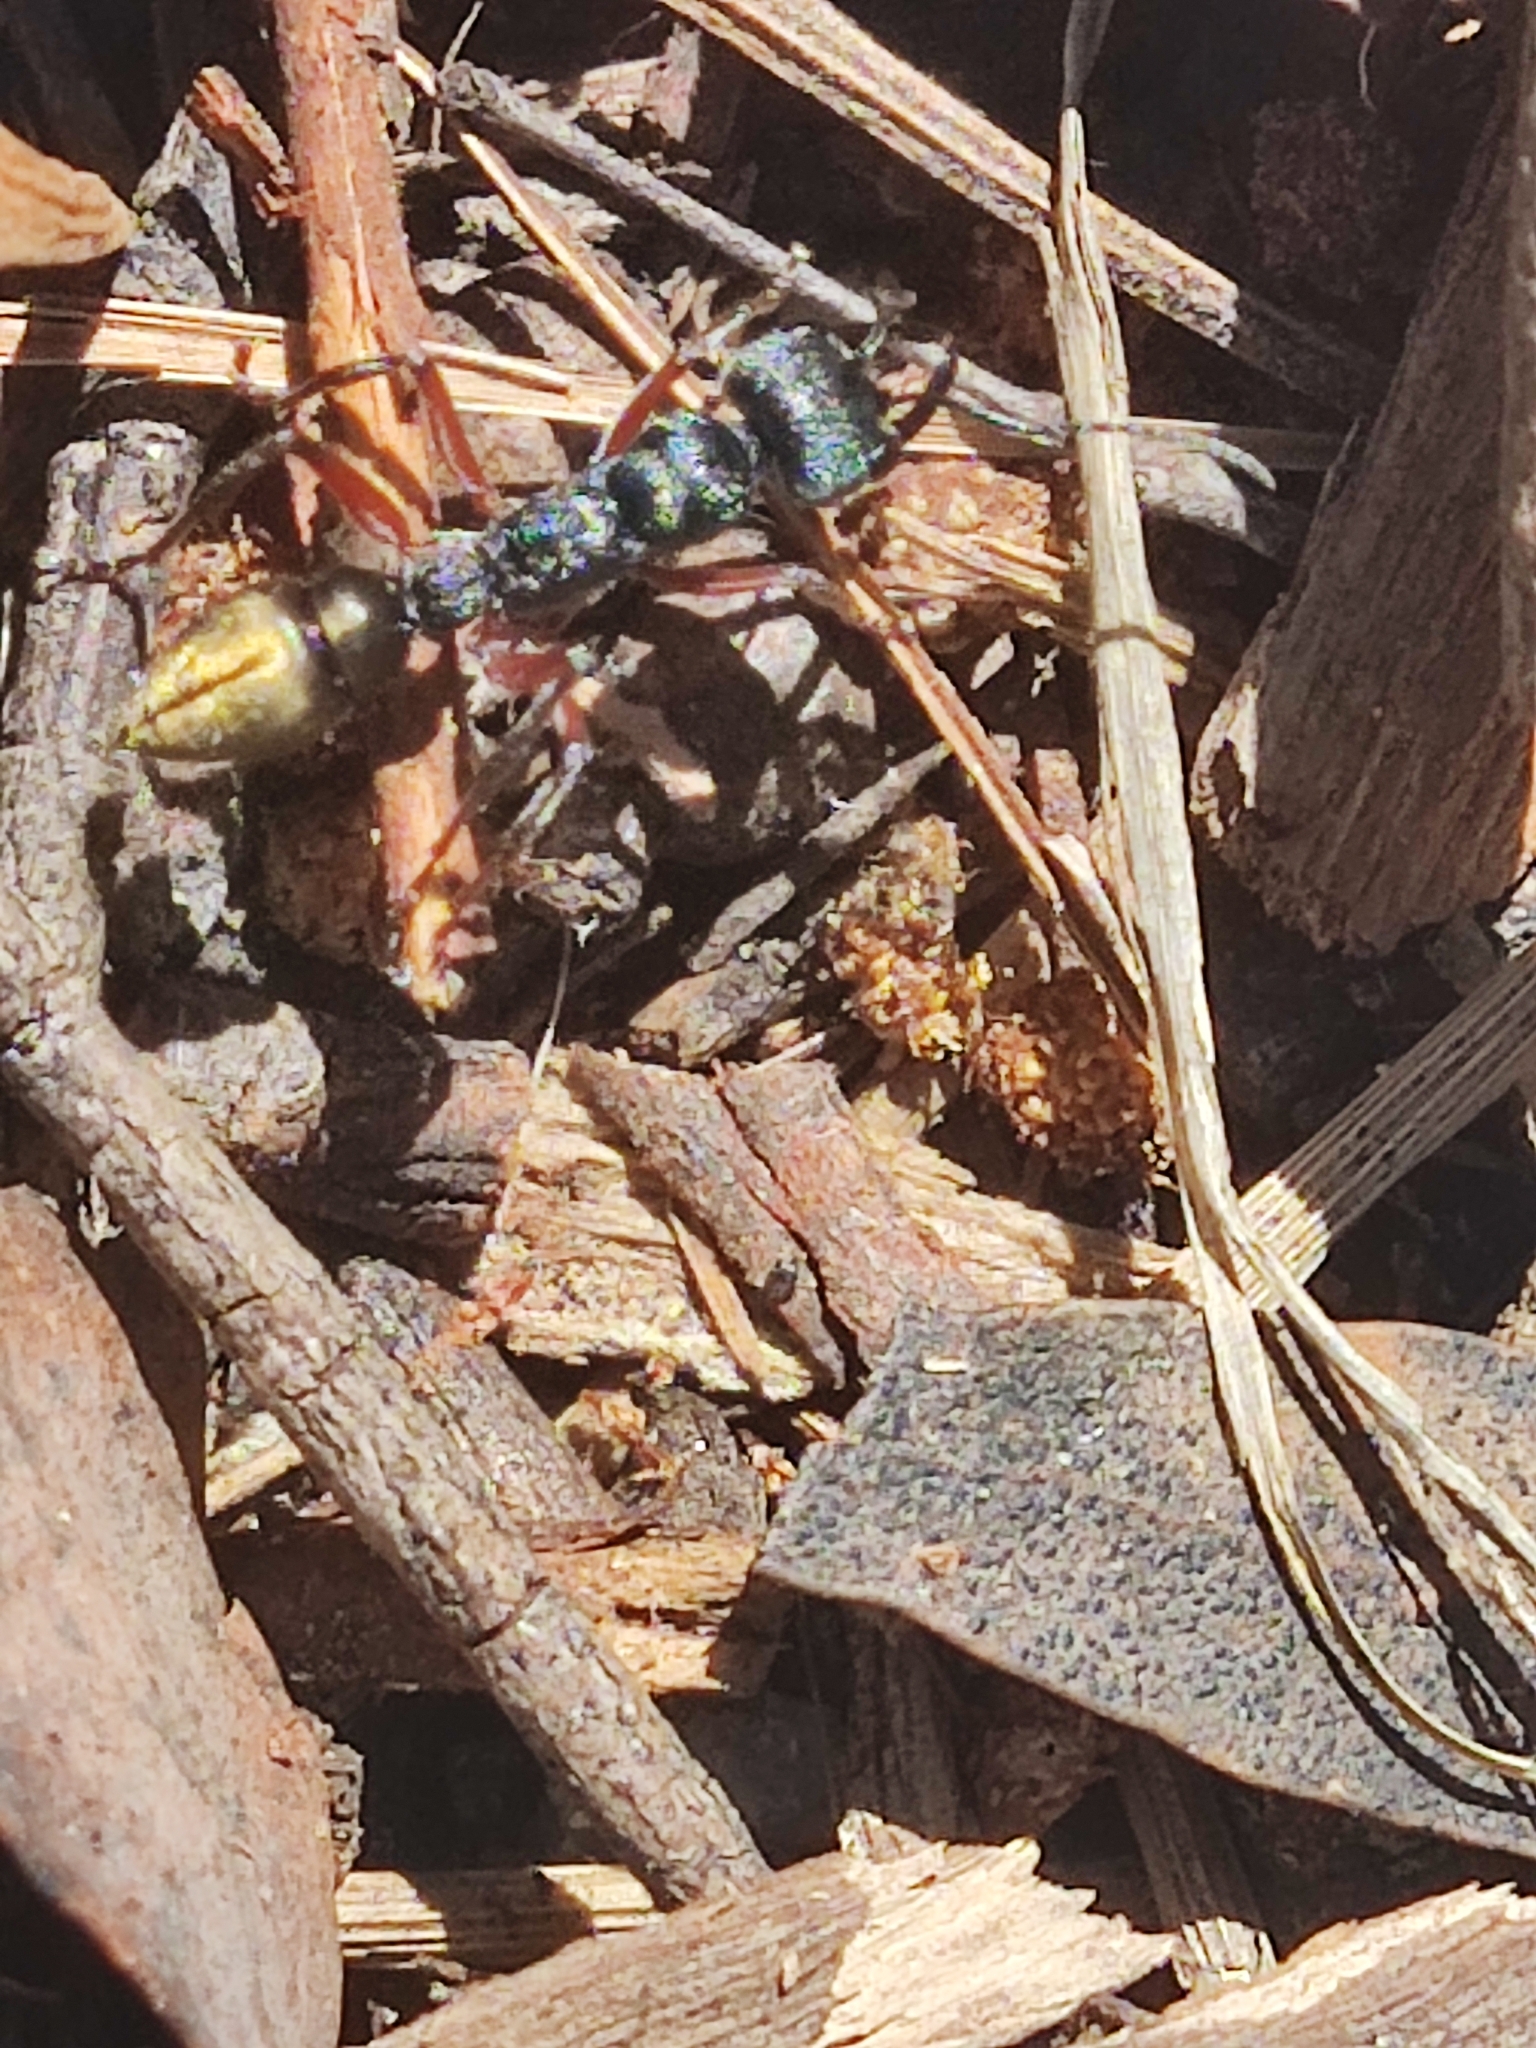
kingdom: Animalia
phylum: Arthropoda
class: Insecta
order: Hymenoptera
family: Formicidae
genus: Myrmecia
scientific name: Myrmecia fulvipes
